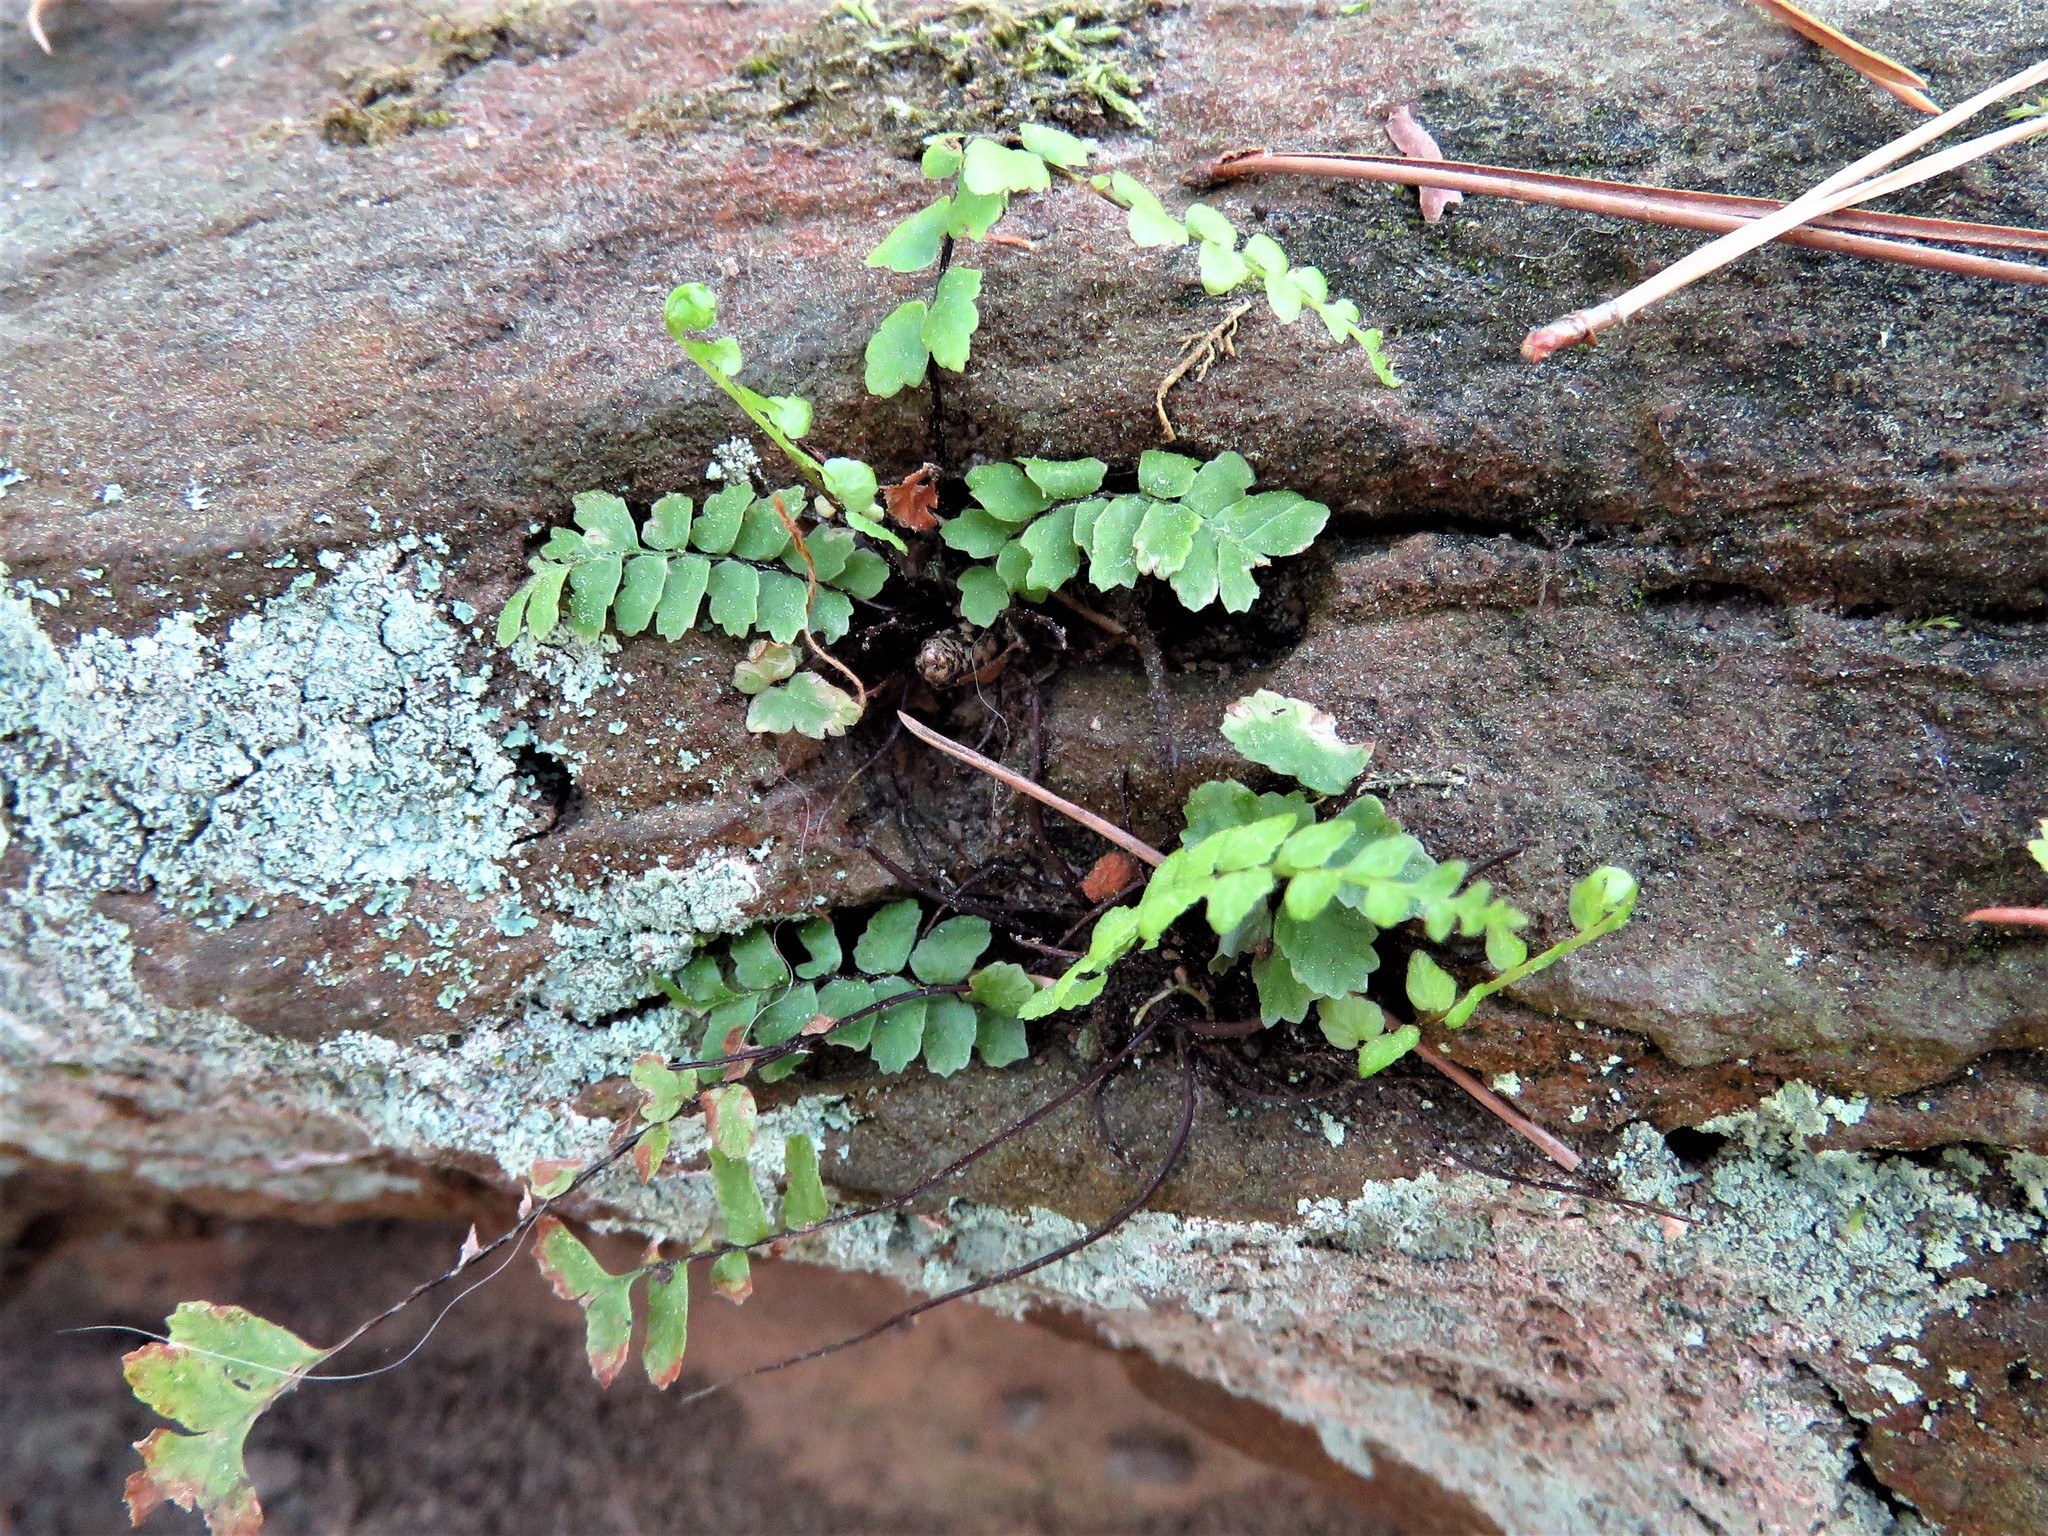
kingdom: Plantae
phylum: Tracheophyta
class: Polypodiopsida
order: Polypodiales
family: Aspleniaceae
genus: Asplenium
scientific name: Asplenium platyneuron
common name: Ebony spleenwort
